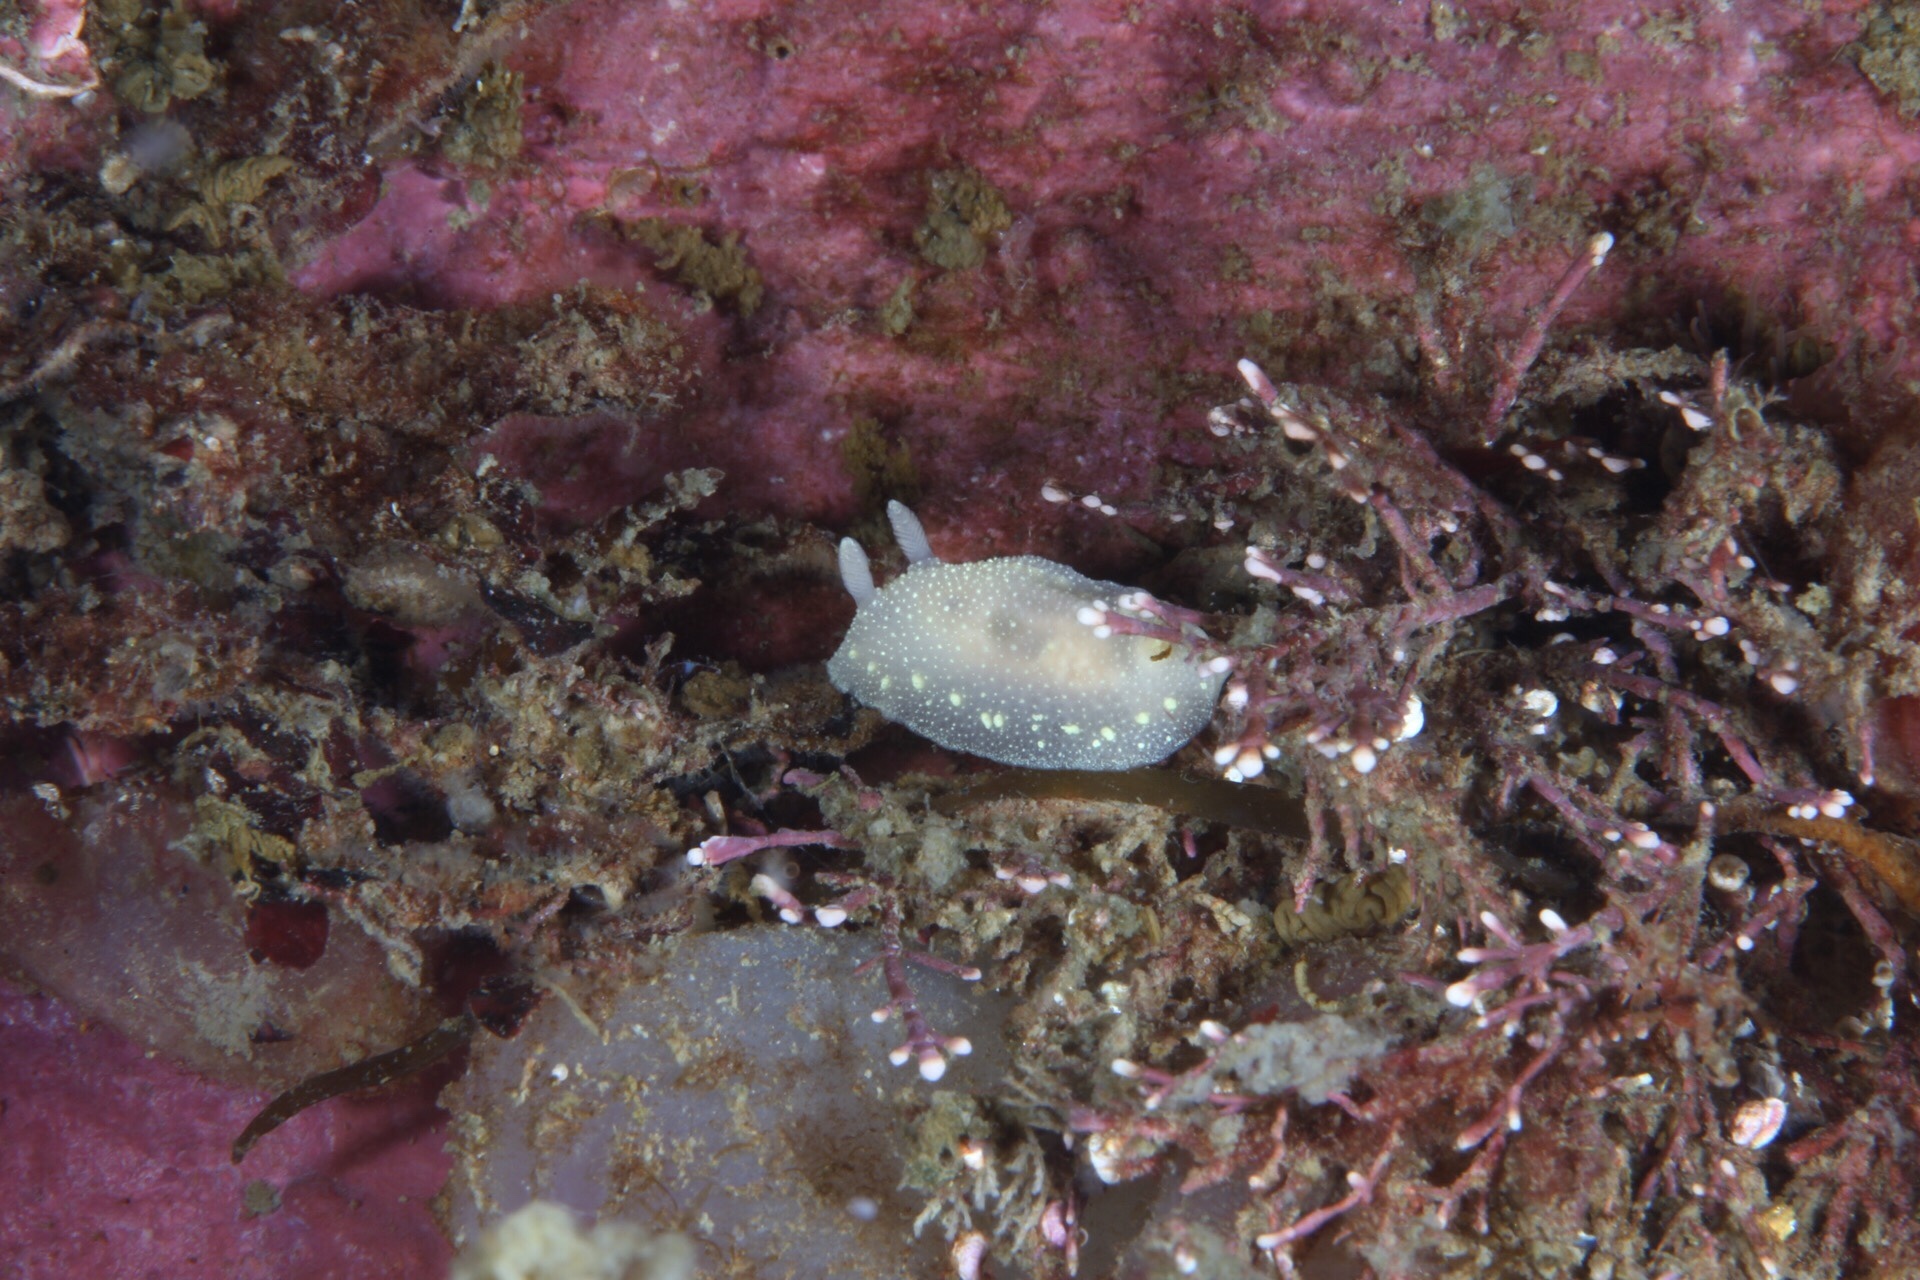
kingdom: Animalia
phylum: Mollusca
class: Gastropoda
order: Nudibranchia
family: Cadlinidae
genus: Cadlina
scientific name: Cadlina laevis
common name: White atlantic cadlina
